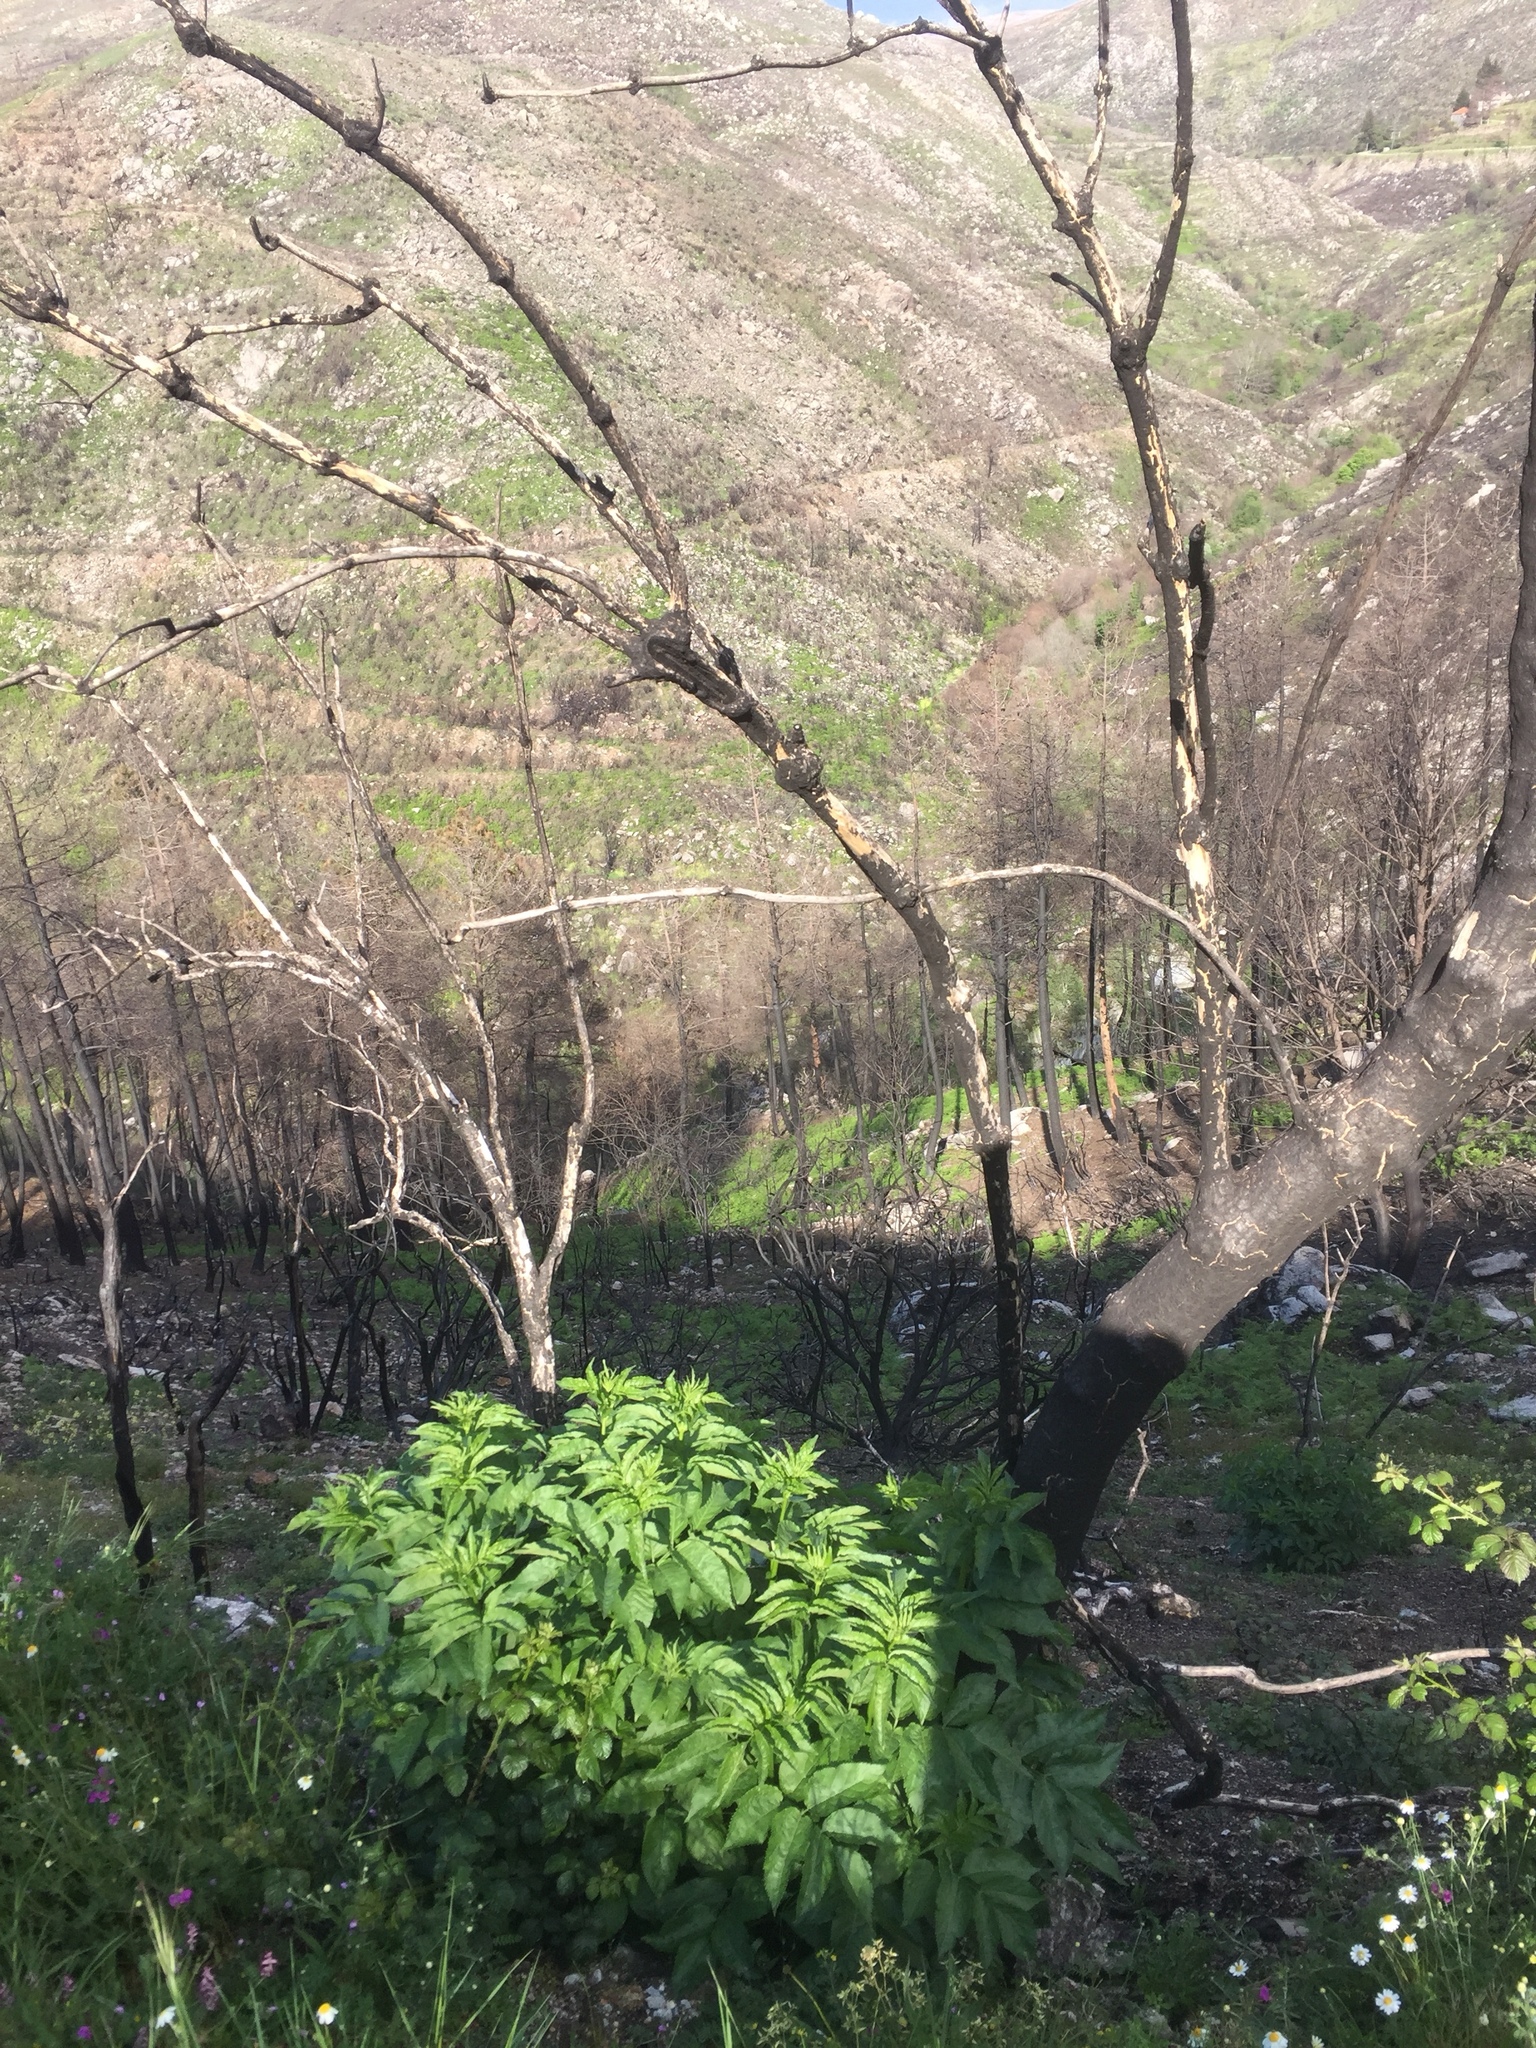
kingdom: Plantae
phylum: Tracheophyta
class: Magnoliopsida
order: Dipsacales
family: Viburnaceae
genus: Sambucus
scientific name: Sambucus nigra
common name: Elder
